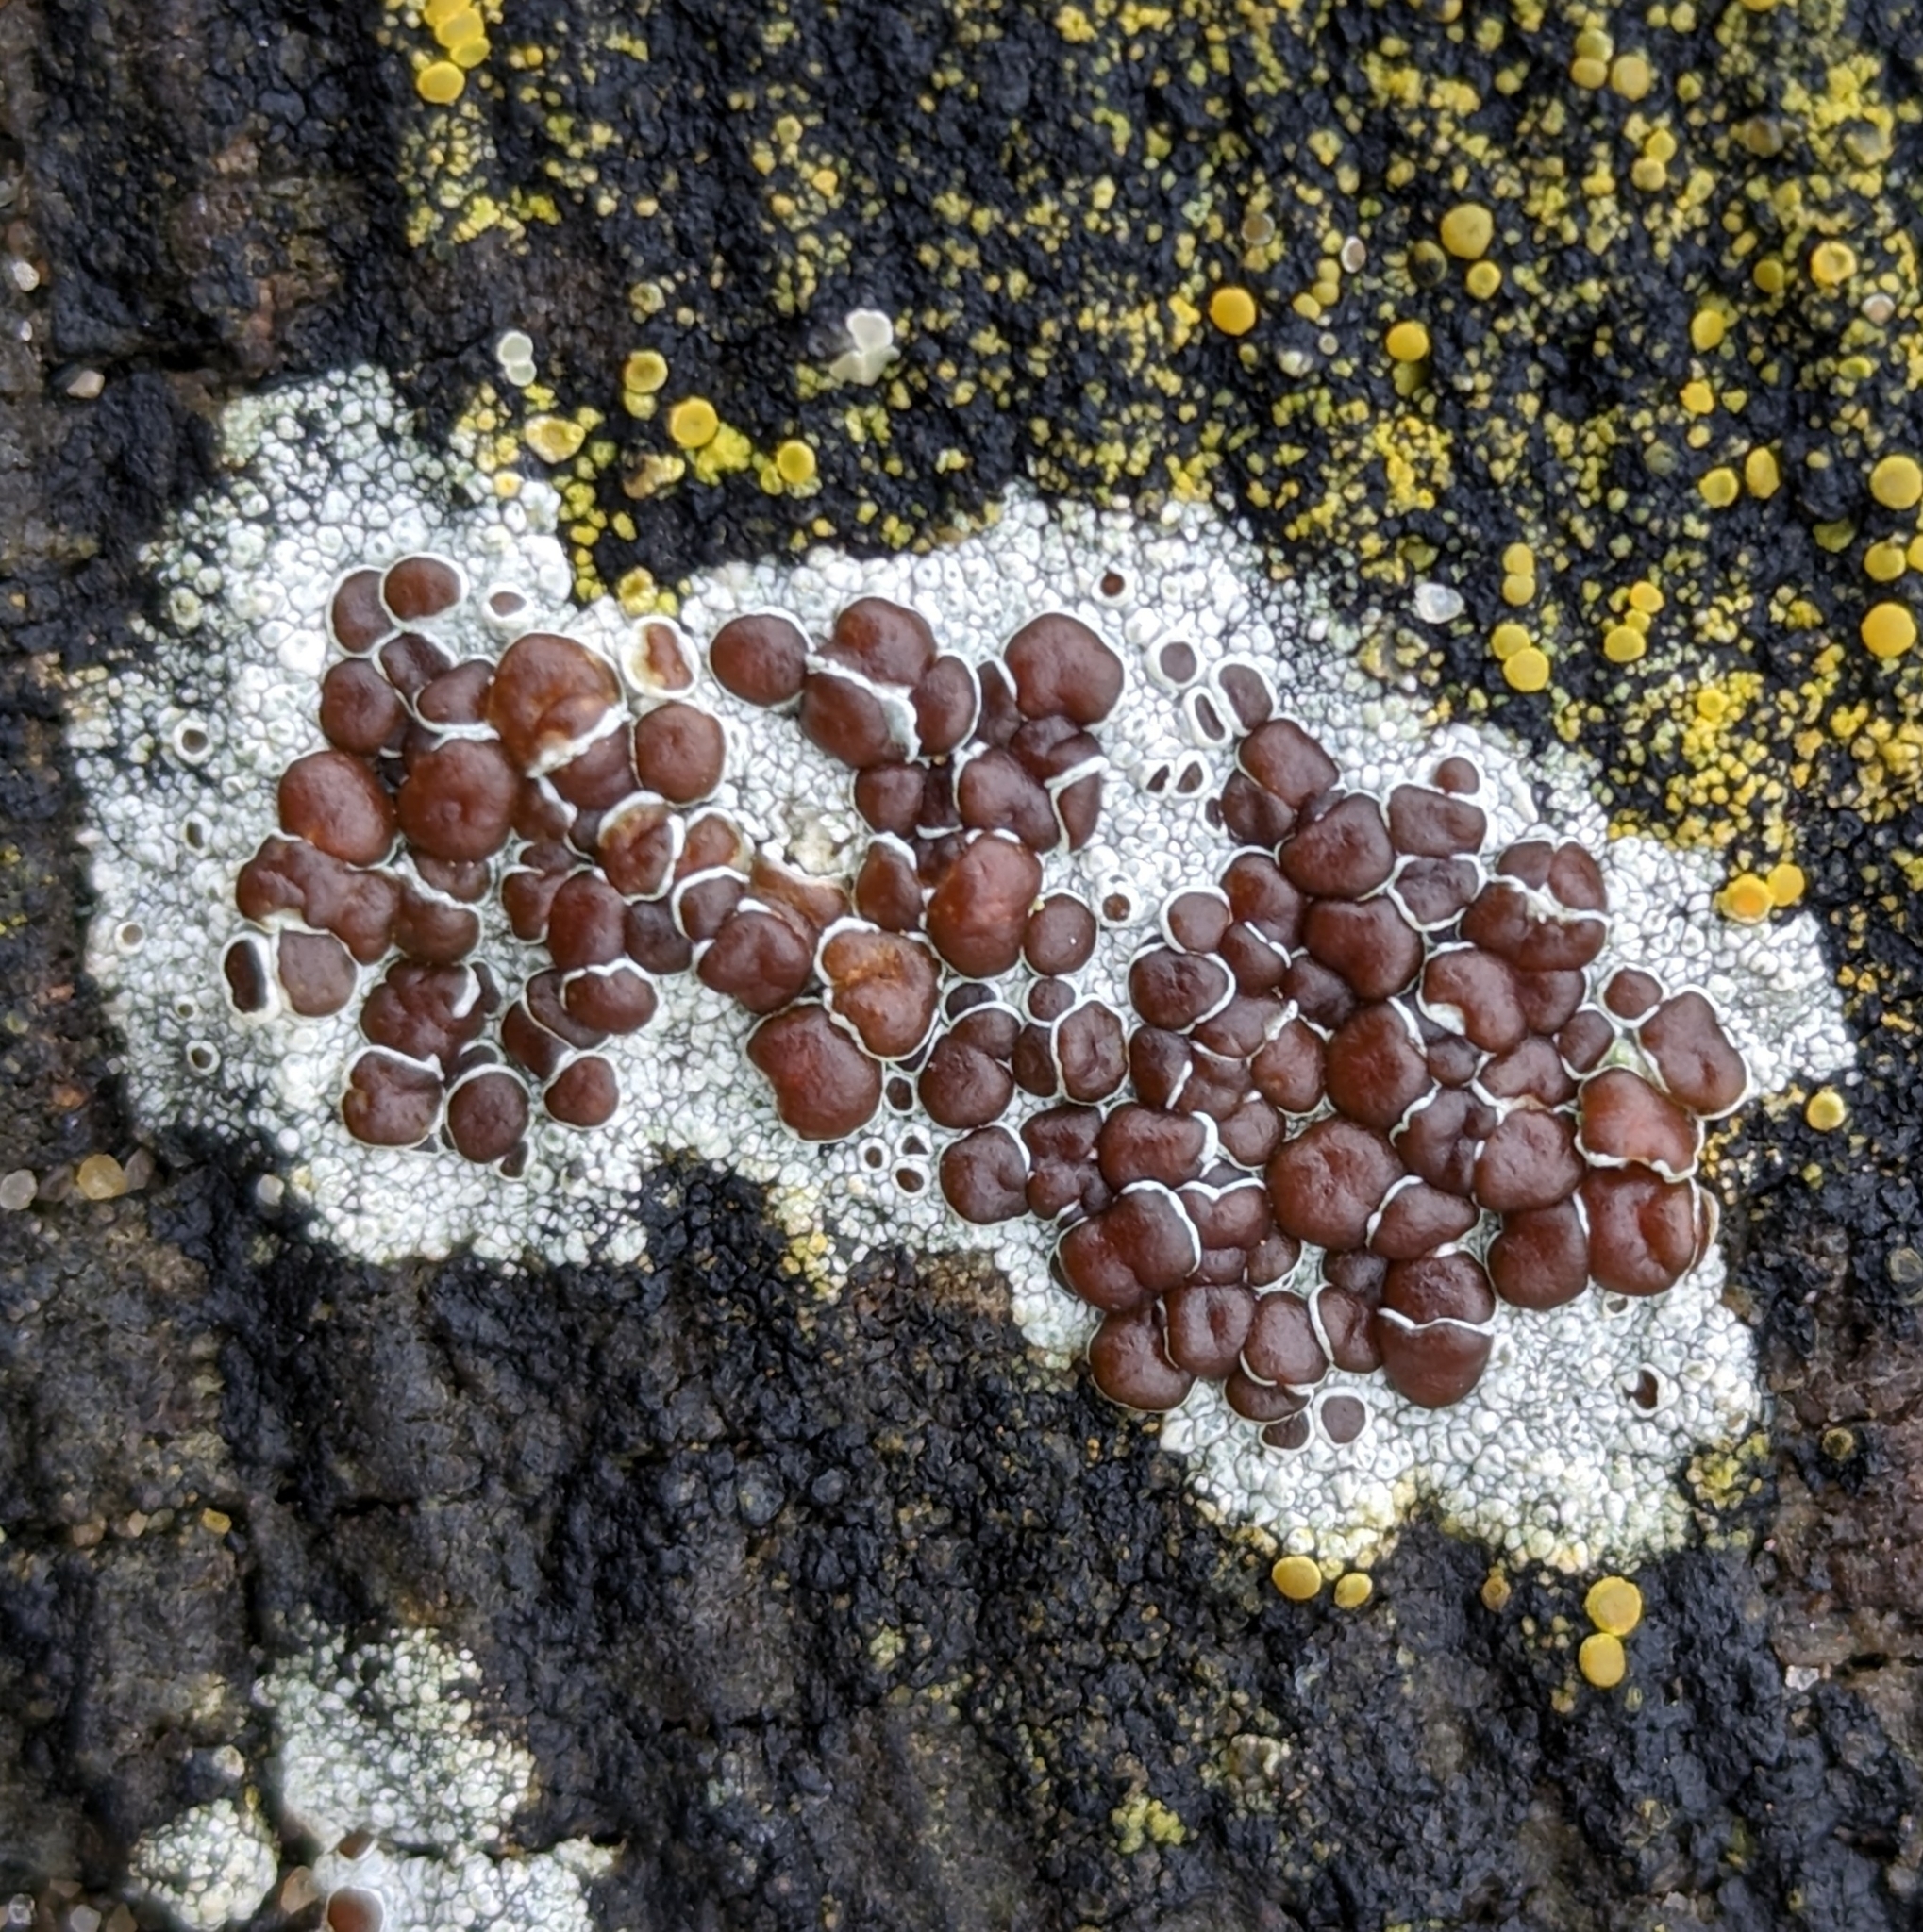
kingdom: Fungi
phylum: Ascomycota
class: Lecanoromycetes
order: Lecanorales
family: Lecanoraceae
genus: Lecanora
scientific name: Lecanora xylophila
